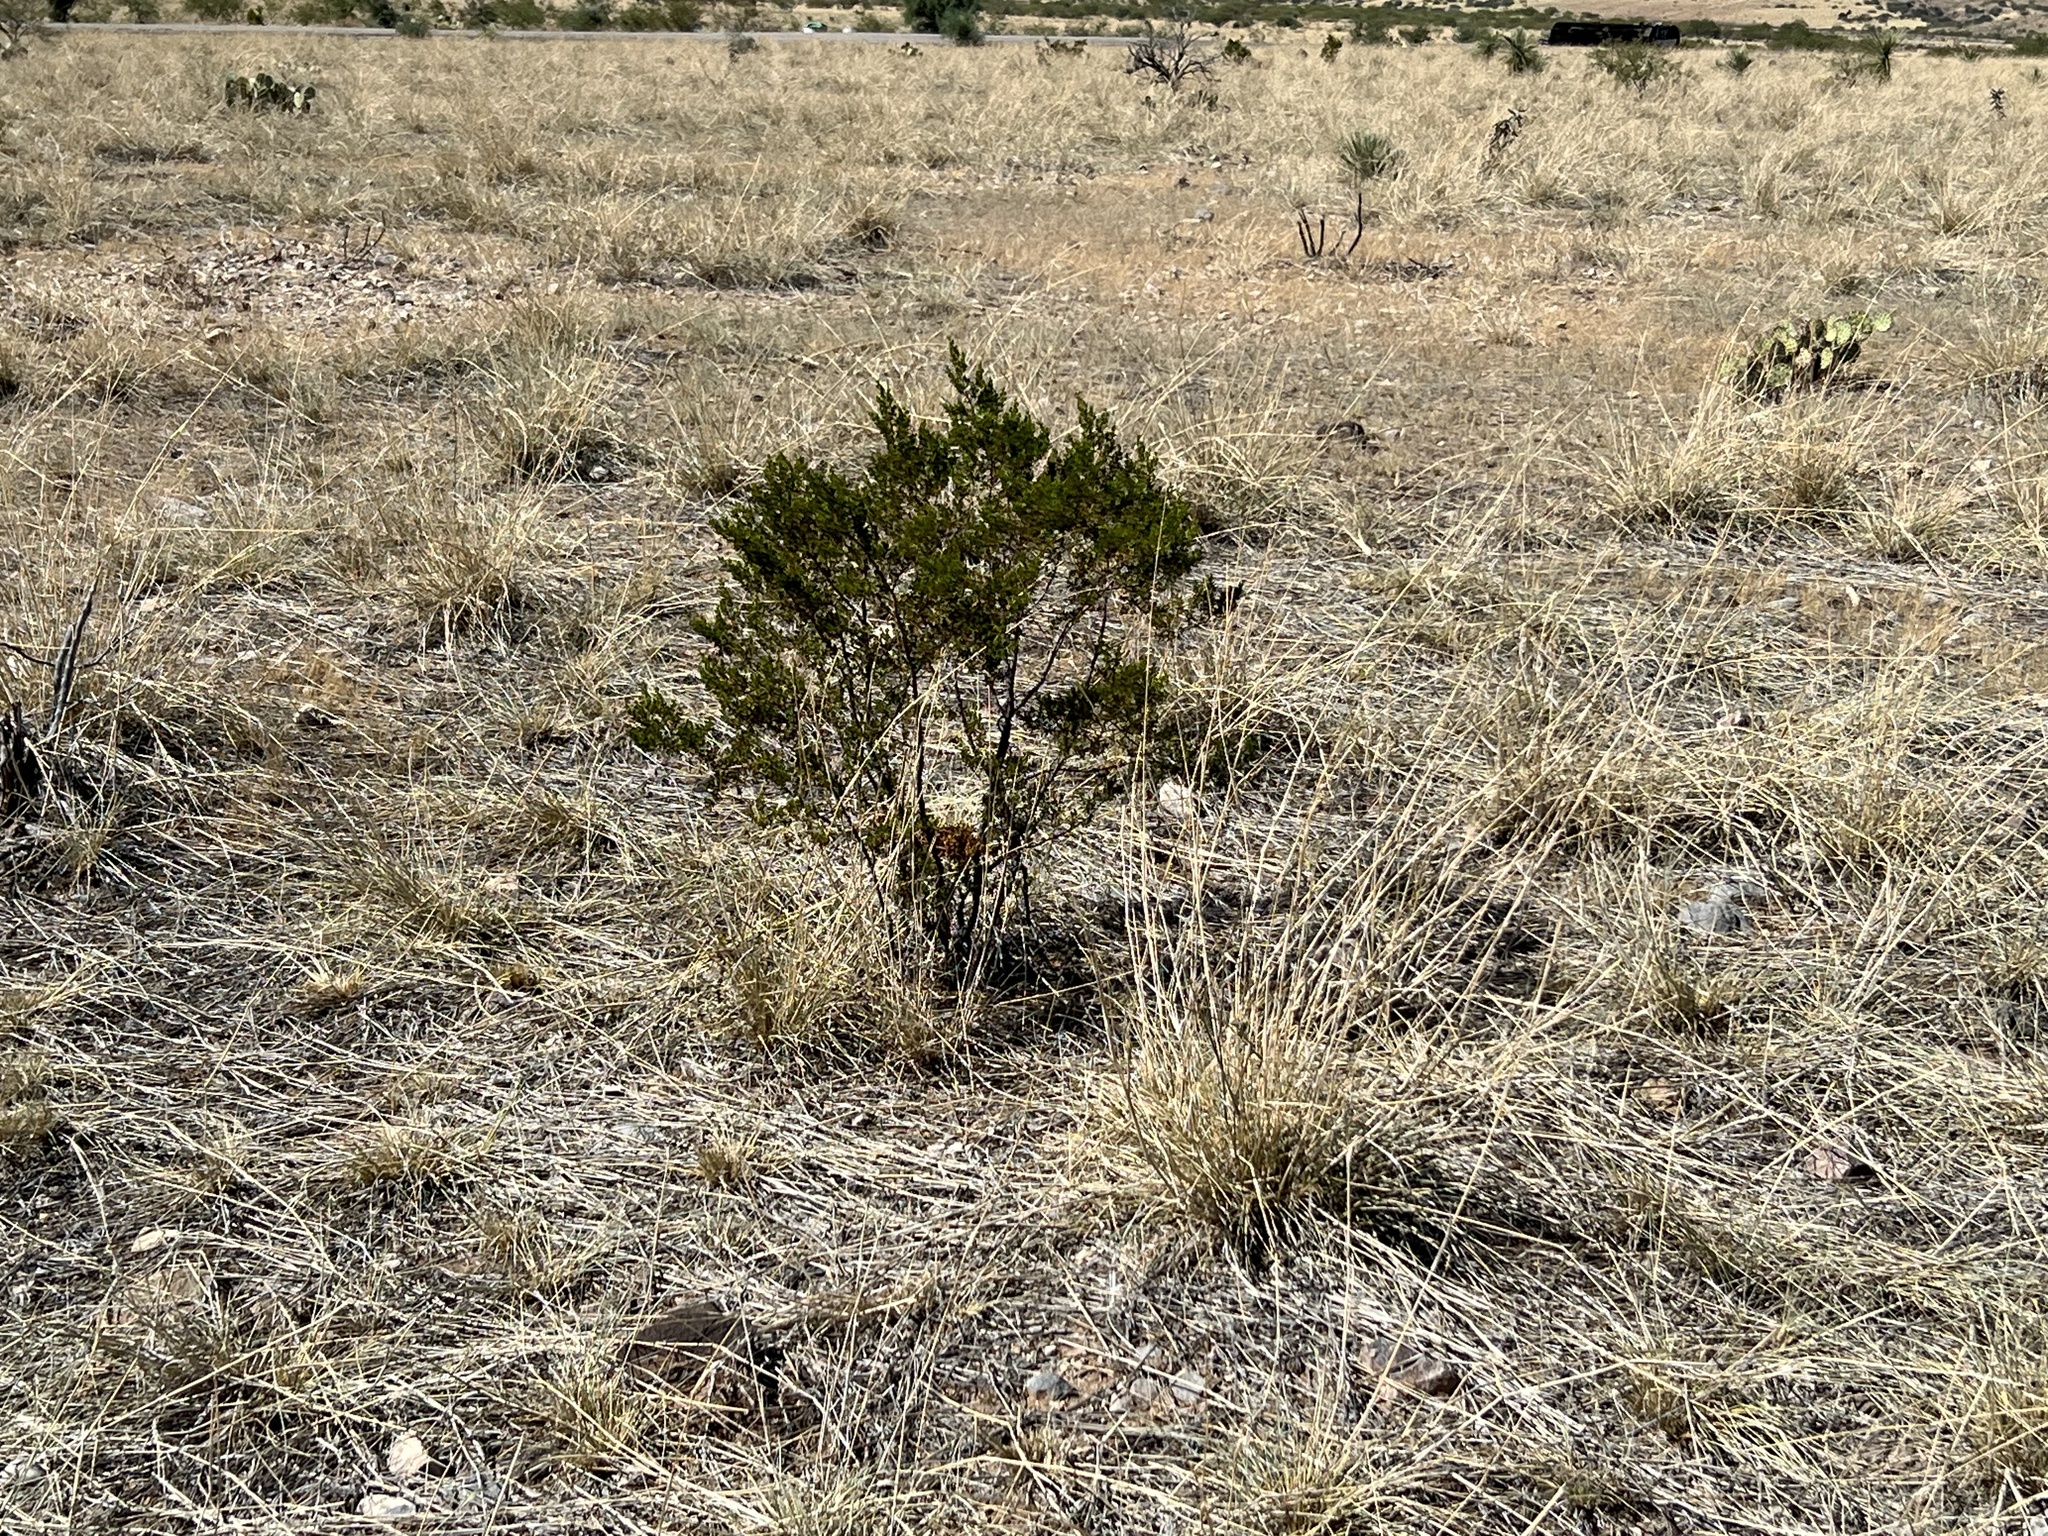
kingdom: Plantae
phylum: Tracheophyta
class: Magnoliopsida
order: Zygophyllales
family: Zygophyllaceae
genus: Larrea
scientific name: Larrea tridentata
